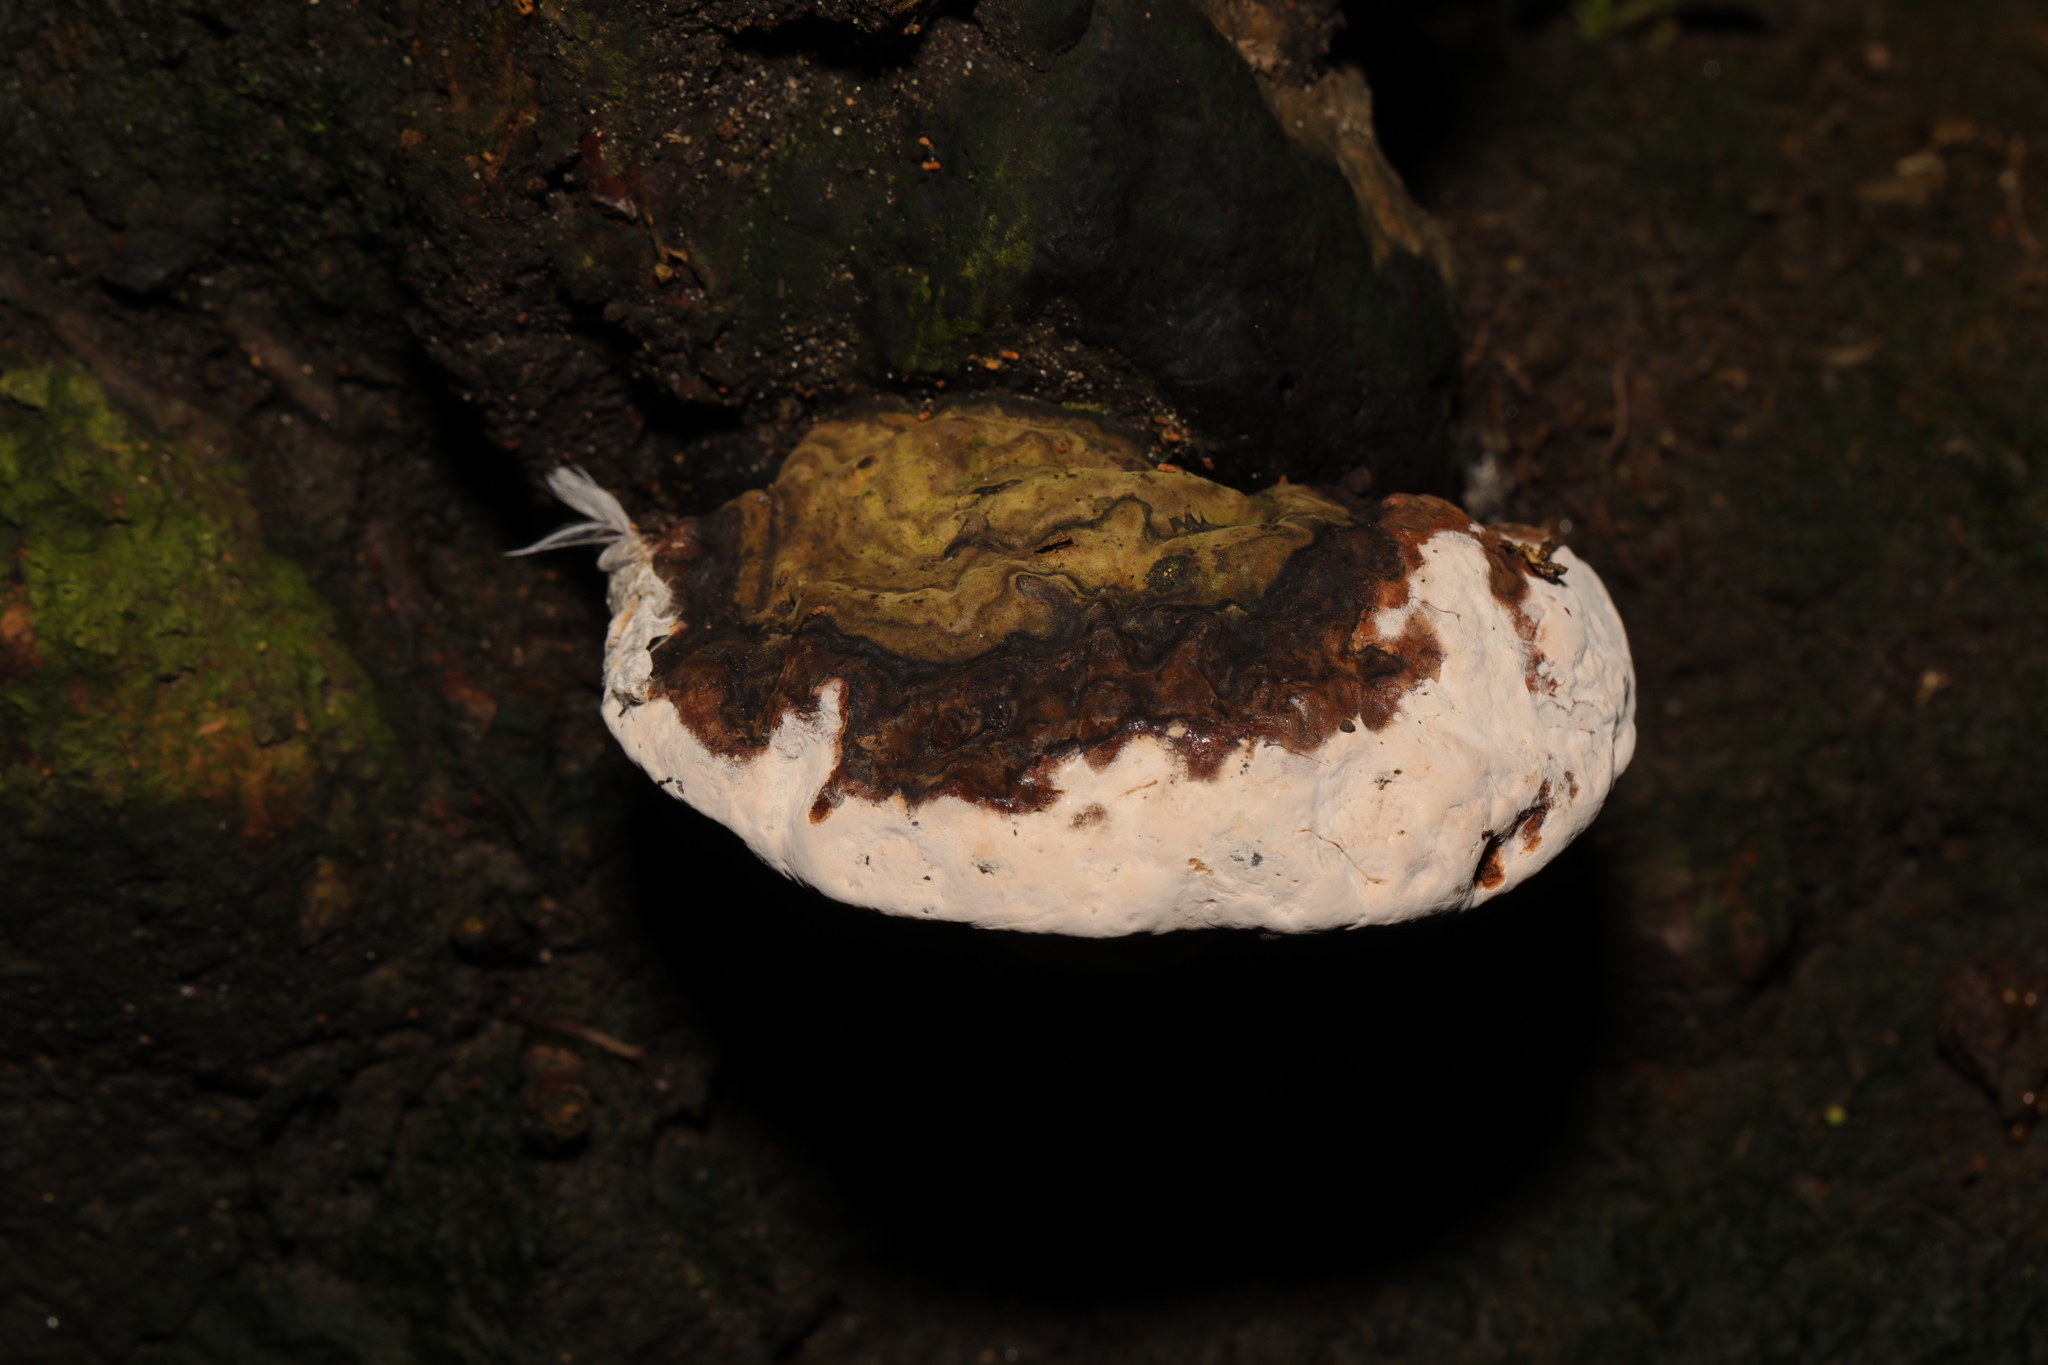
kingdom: Fungi
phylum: Basidiomycota
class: Agaricomycetes
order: Polyporales
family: Polyporaceae
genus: Ganoderma
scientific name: Ganoderma applanatum
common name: Artist's bracket
